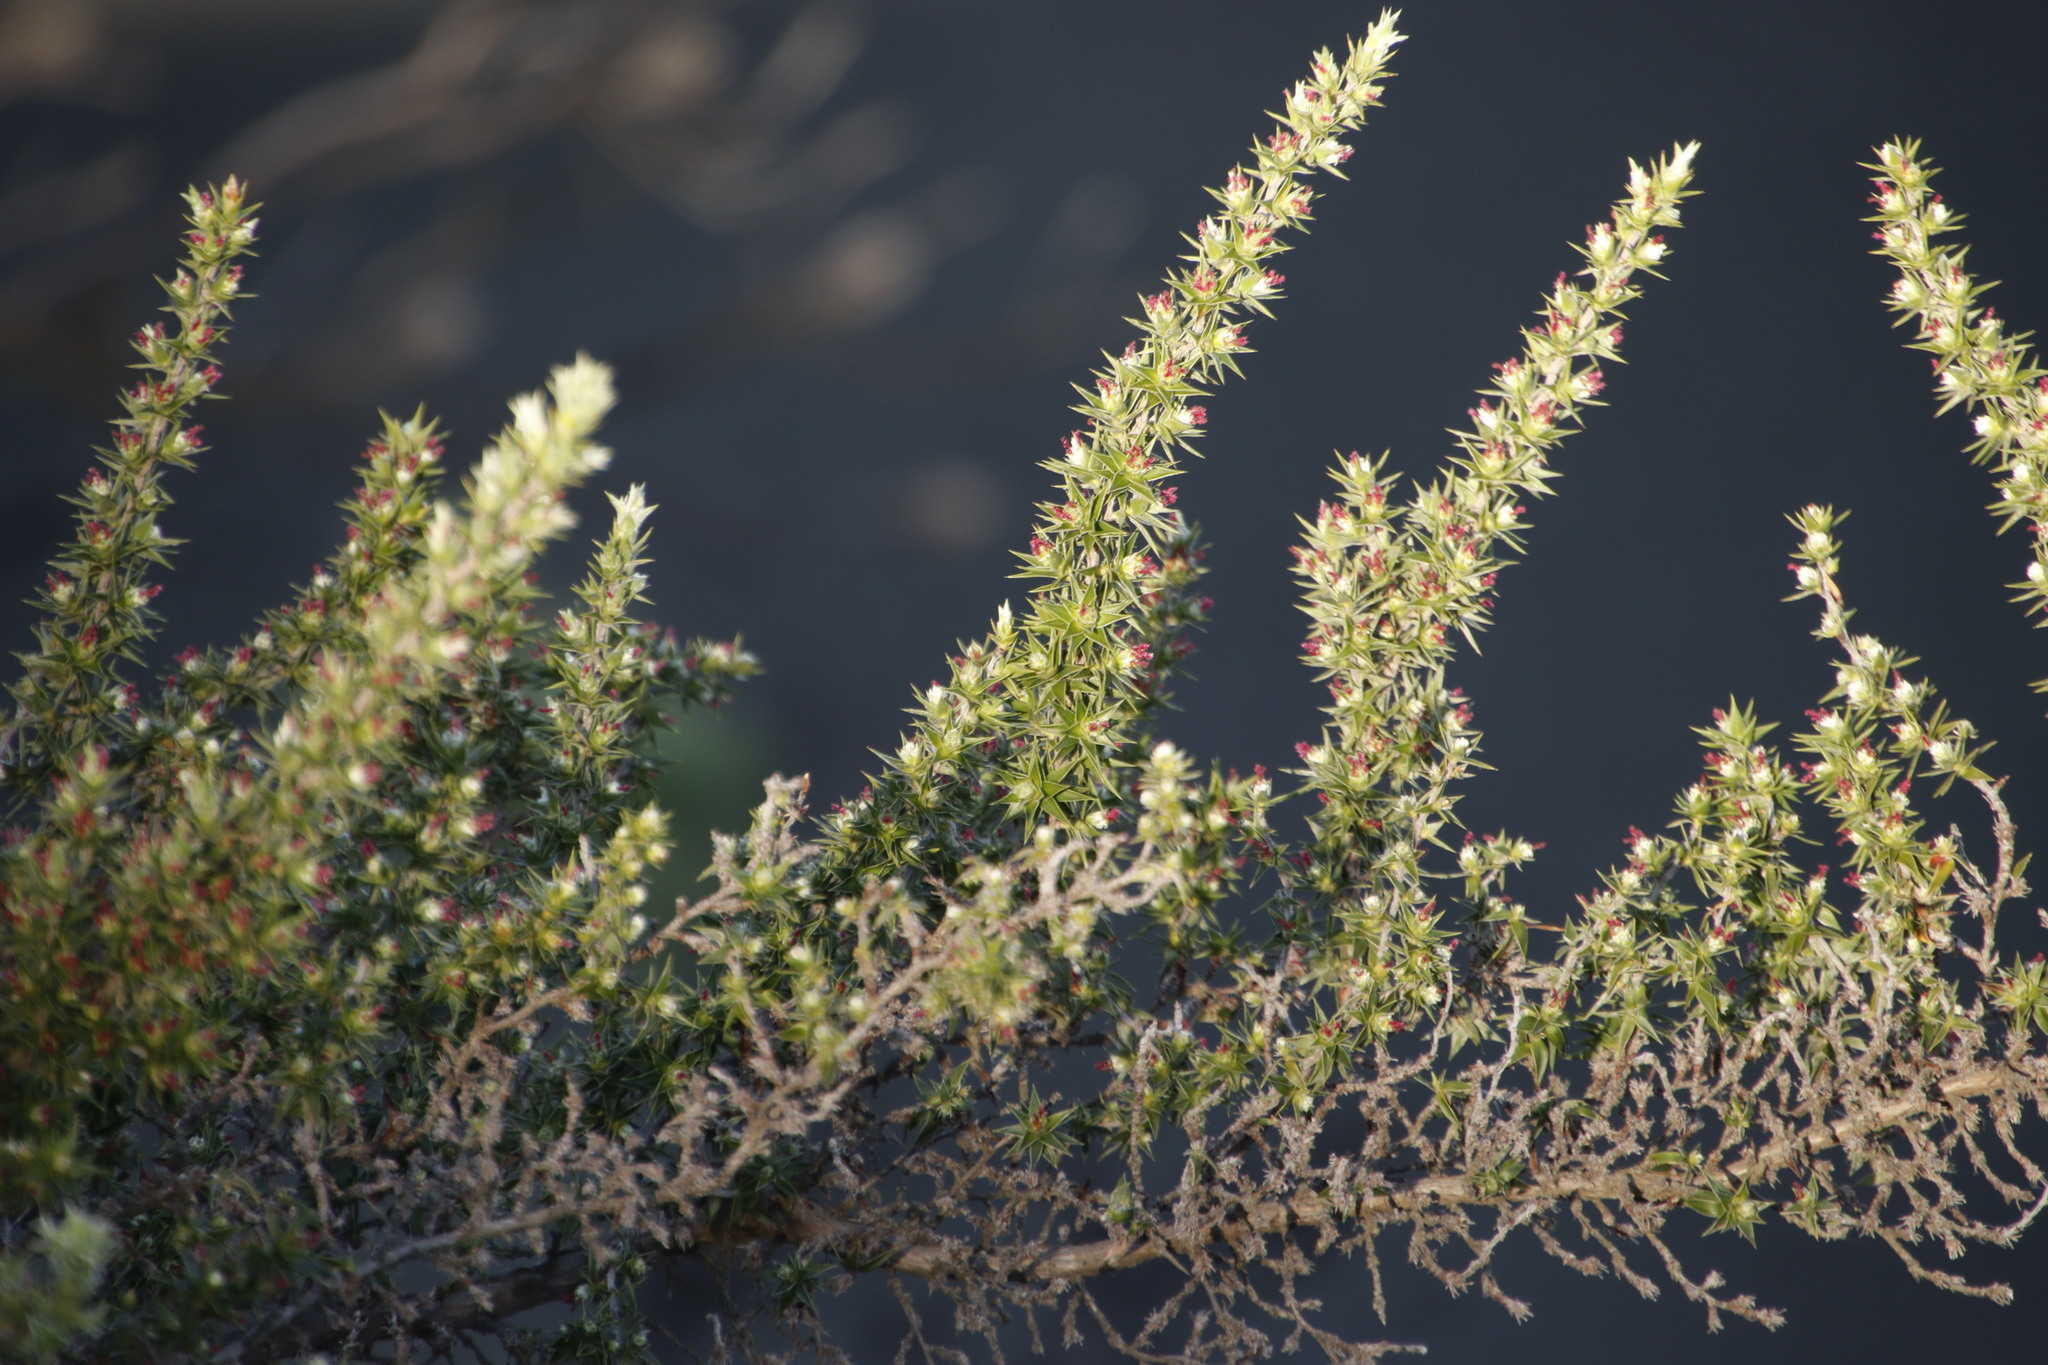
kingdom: Plantae
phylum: Tracheophyta
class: Magnoliopsida
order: Rosales
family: Rosaceae
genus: Cliffortia
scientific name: Cliffortia ruscifolia
